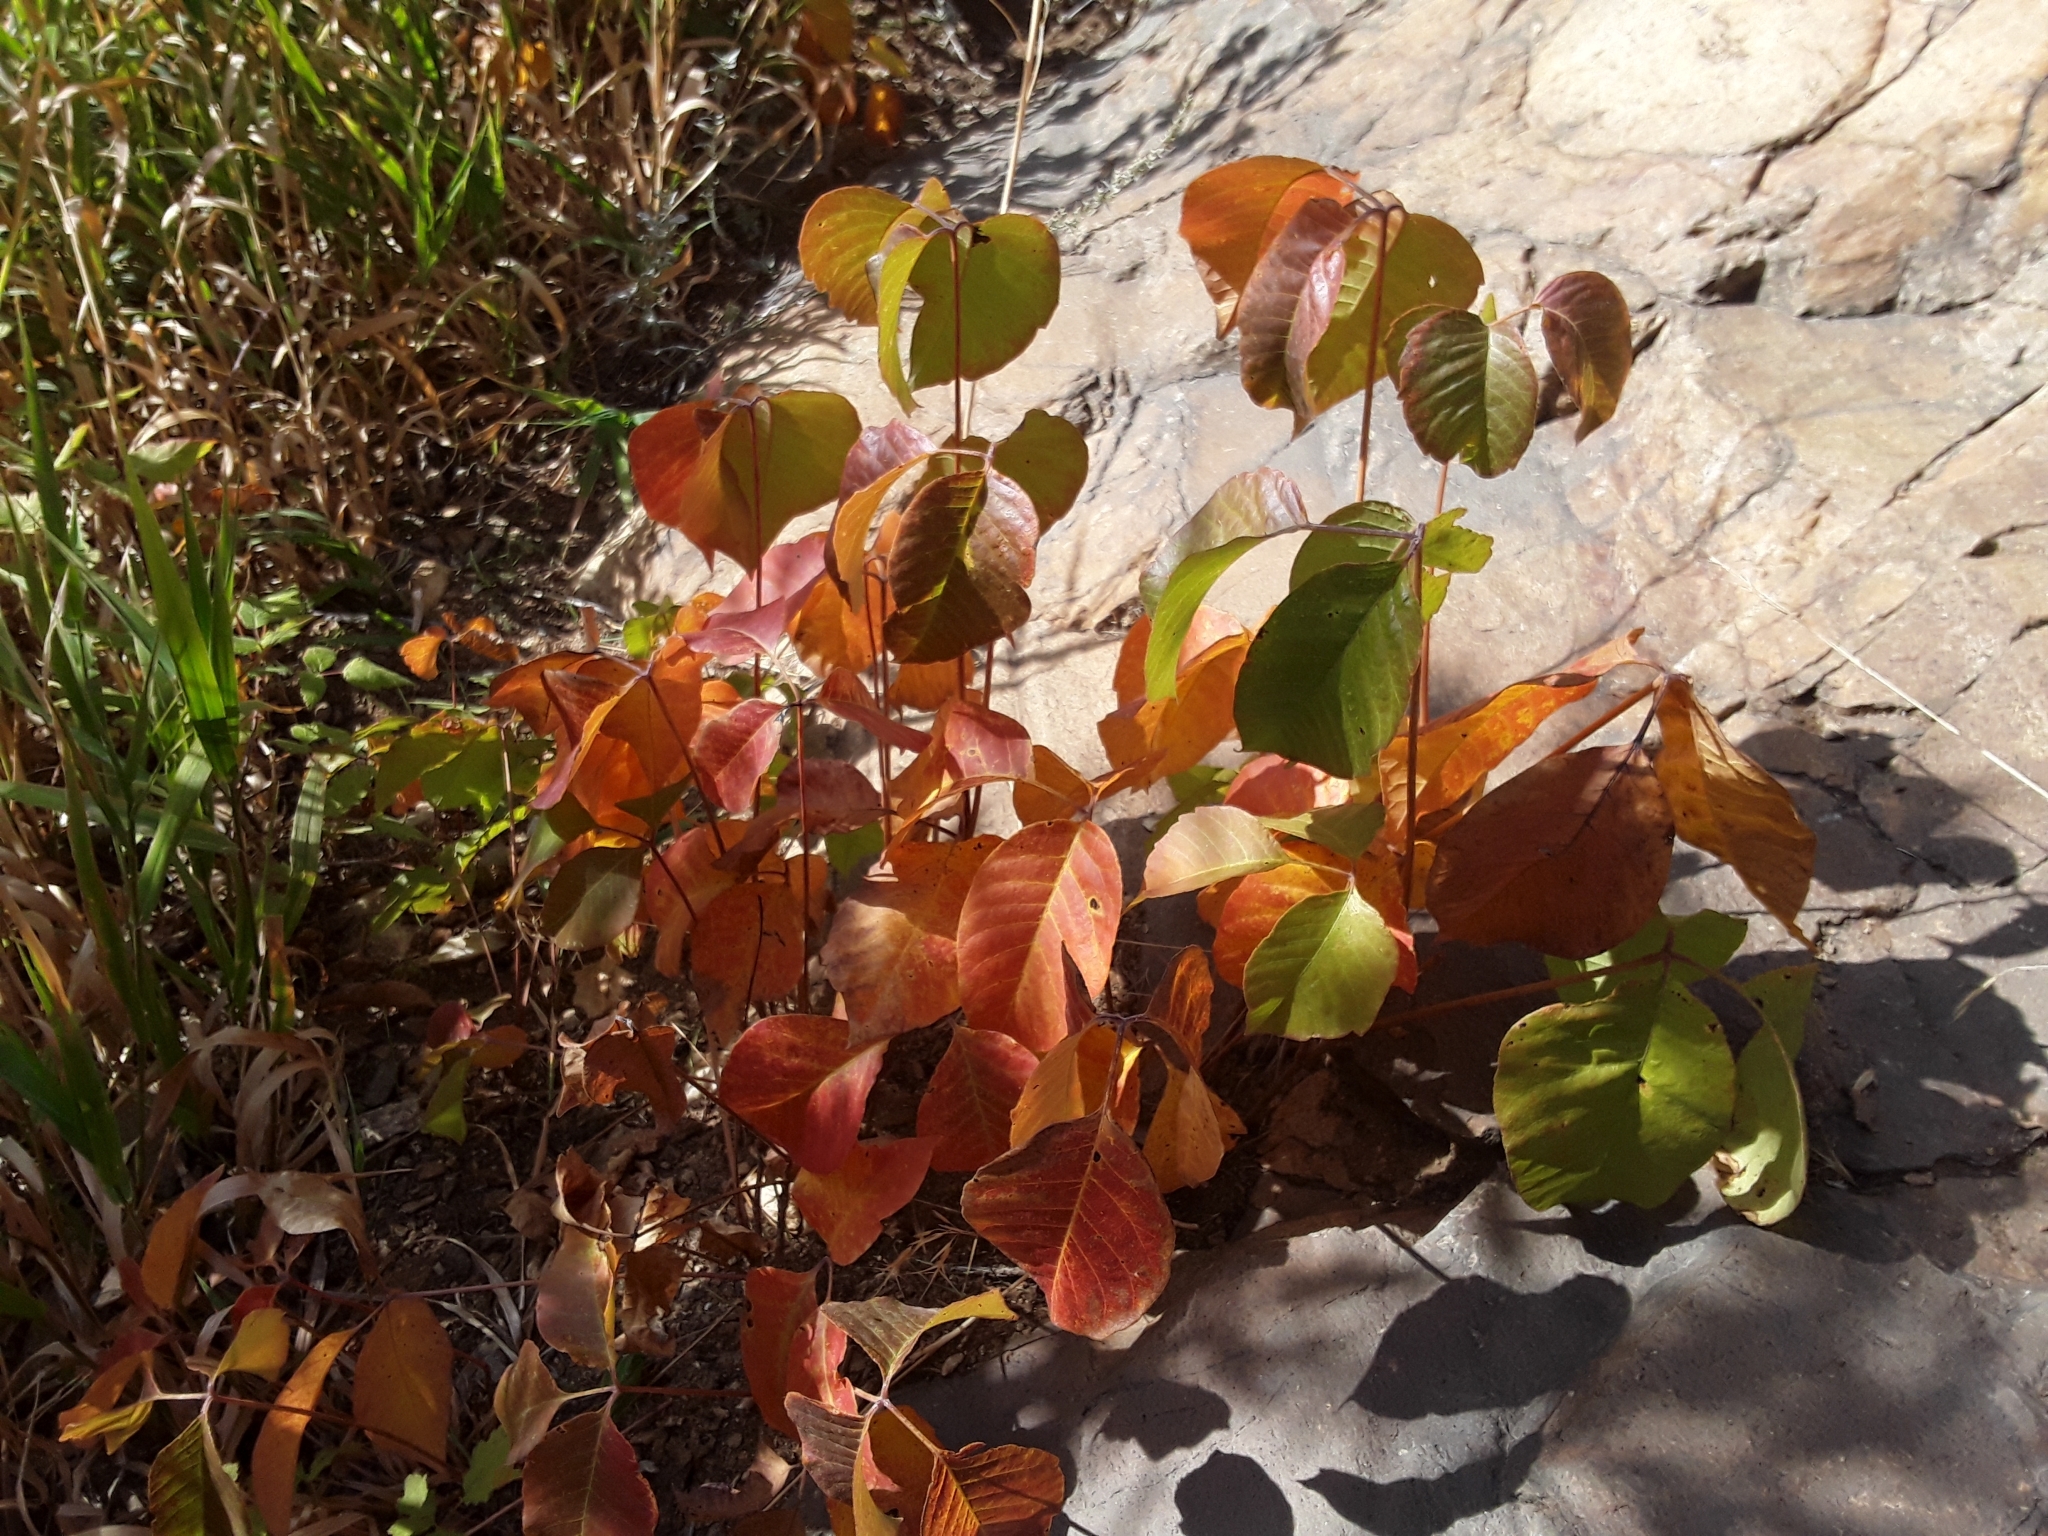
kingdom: Plantae
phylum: Tracheophyta
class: Magnoliopsida
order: Sapindales
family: Anacardiaceae
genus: Toxicodendron
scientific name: Toxicodendron rydbergii
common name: Rydberg's poison-ivy
